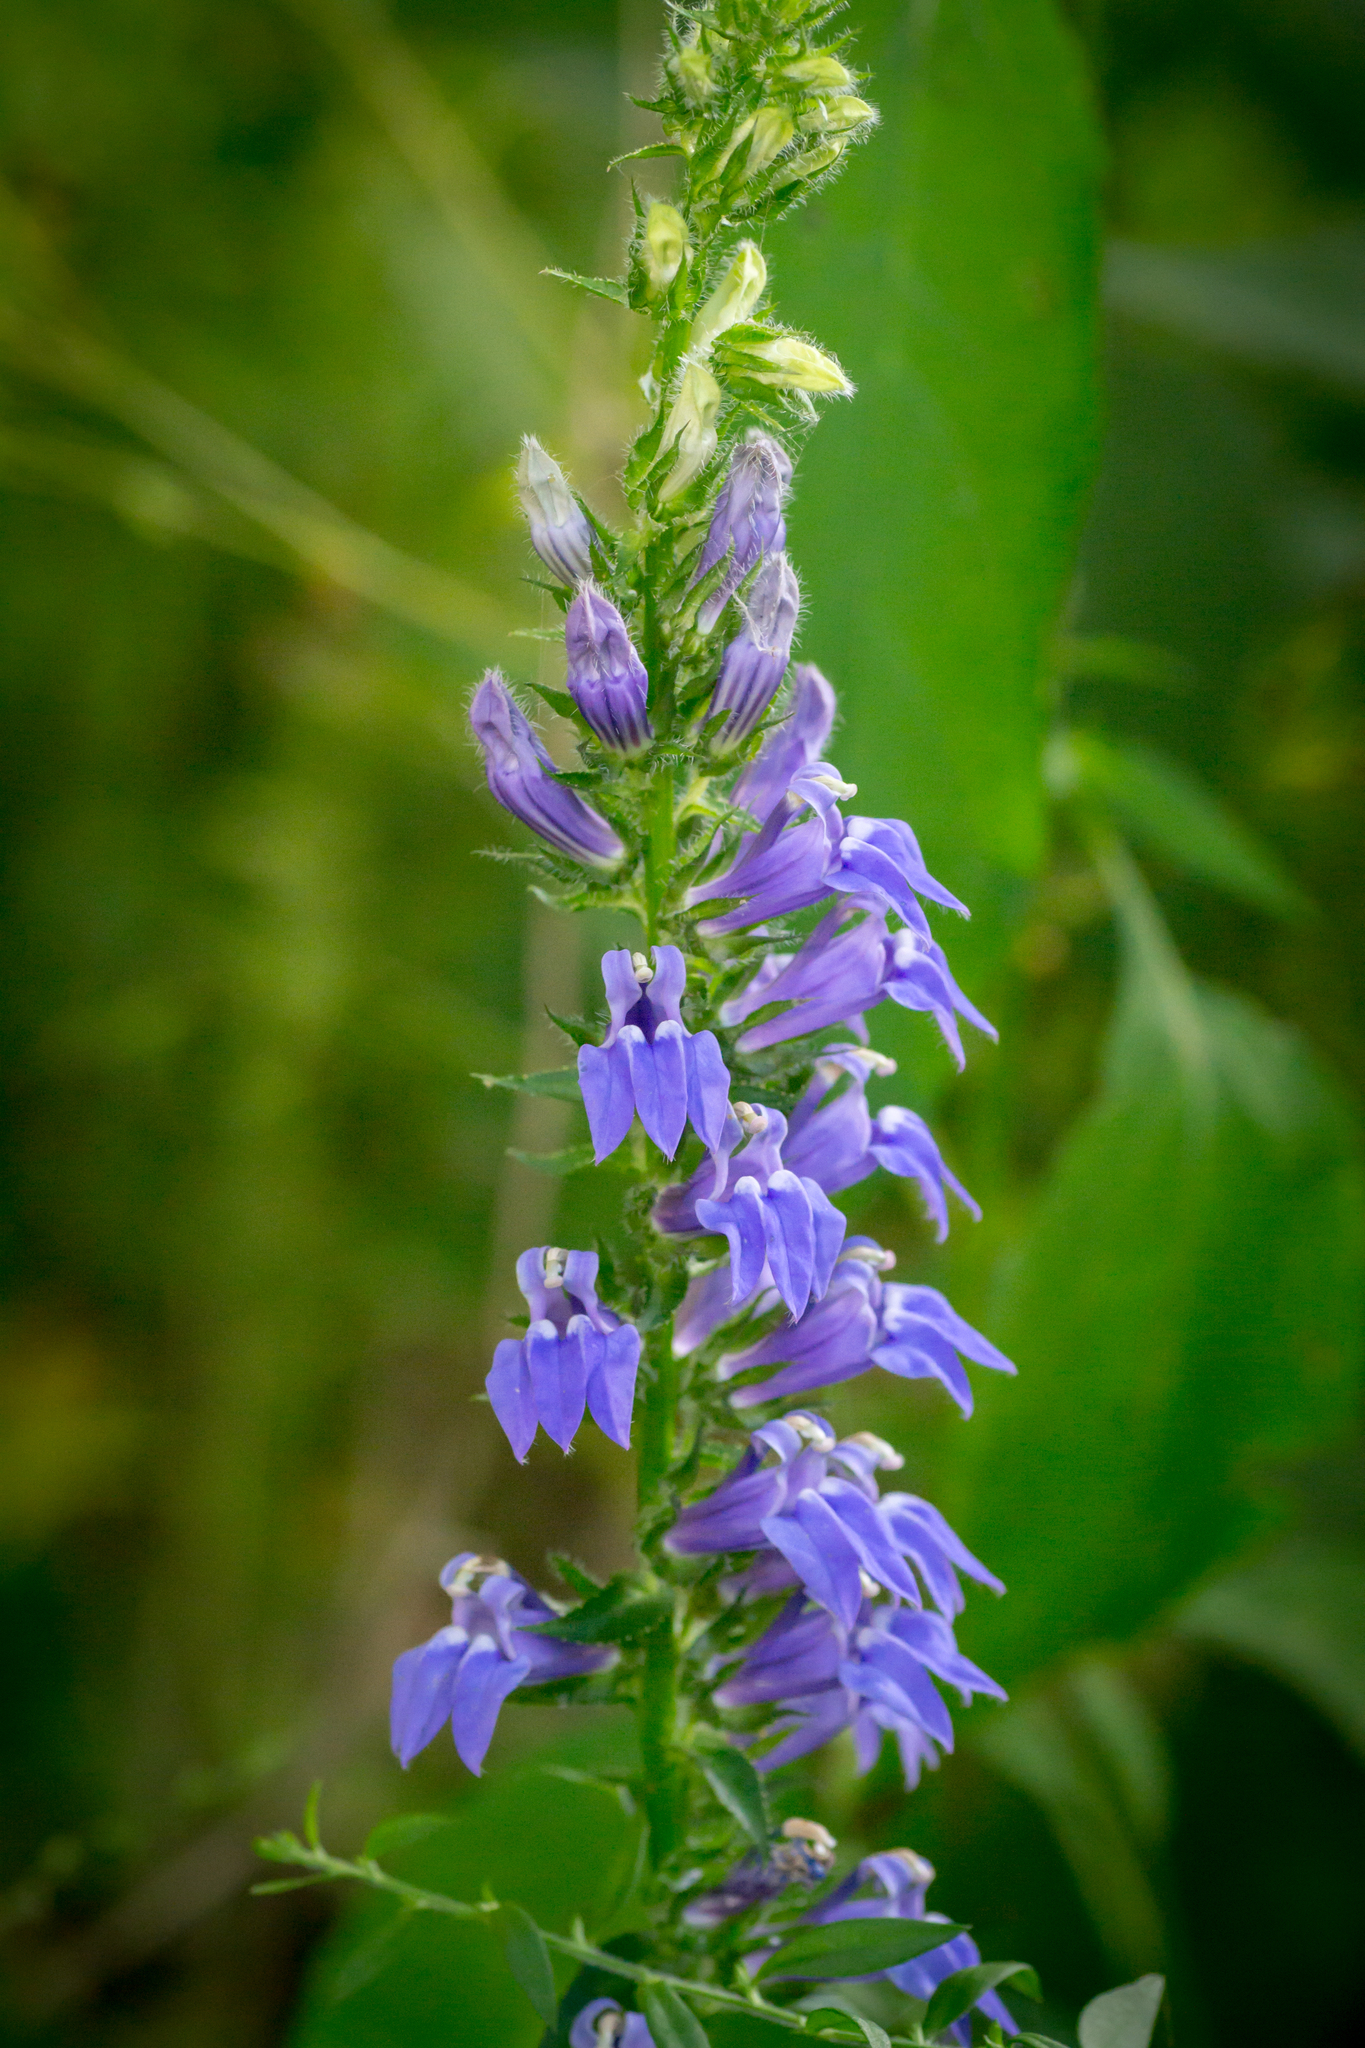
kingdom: Plantae
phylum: Tracheophyta
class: Magnoliopsida
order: Asterales
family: Campanulaceae
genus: Lobelia
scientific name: Lobelia siphilitica
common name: Great lobelia
